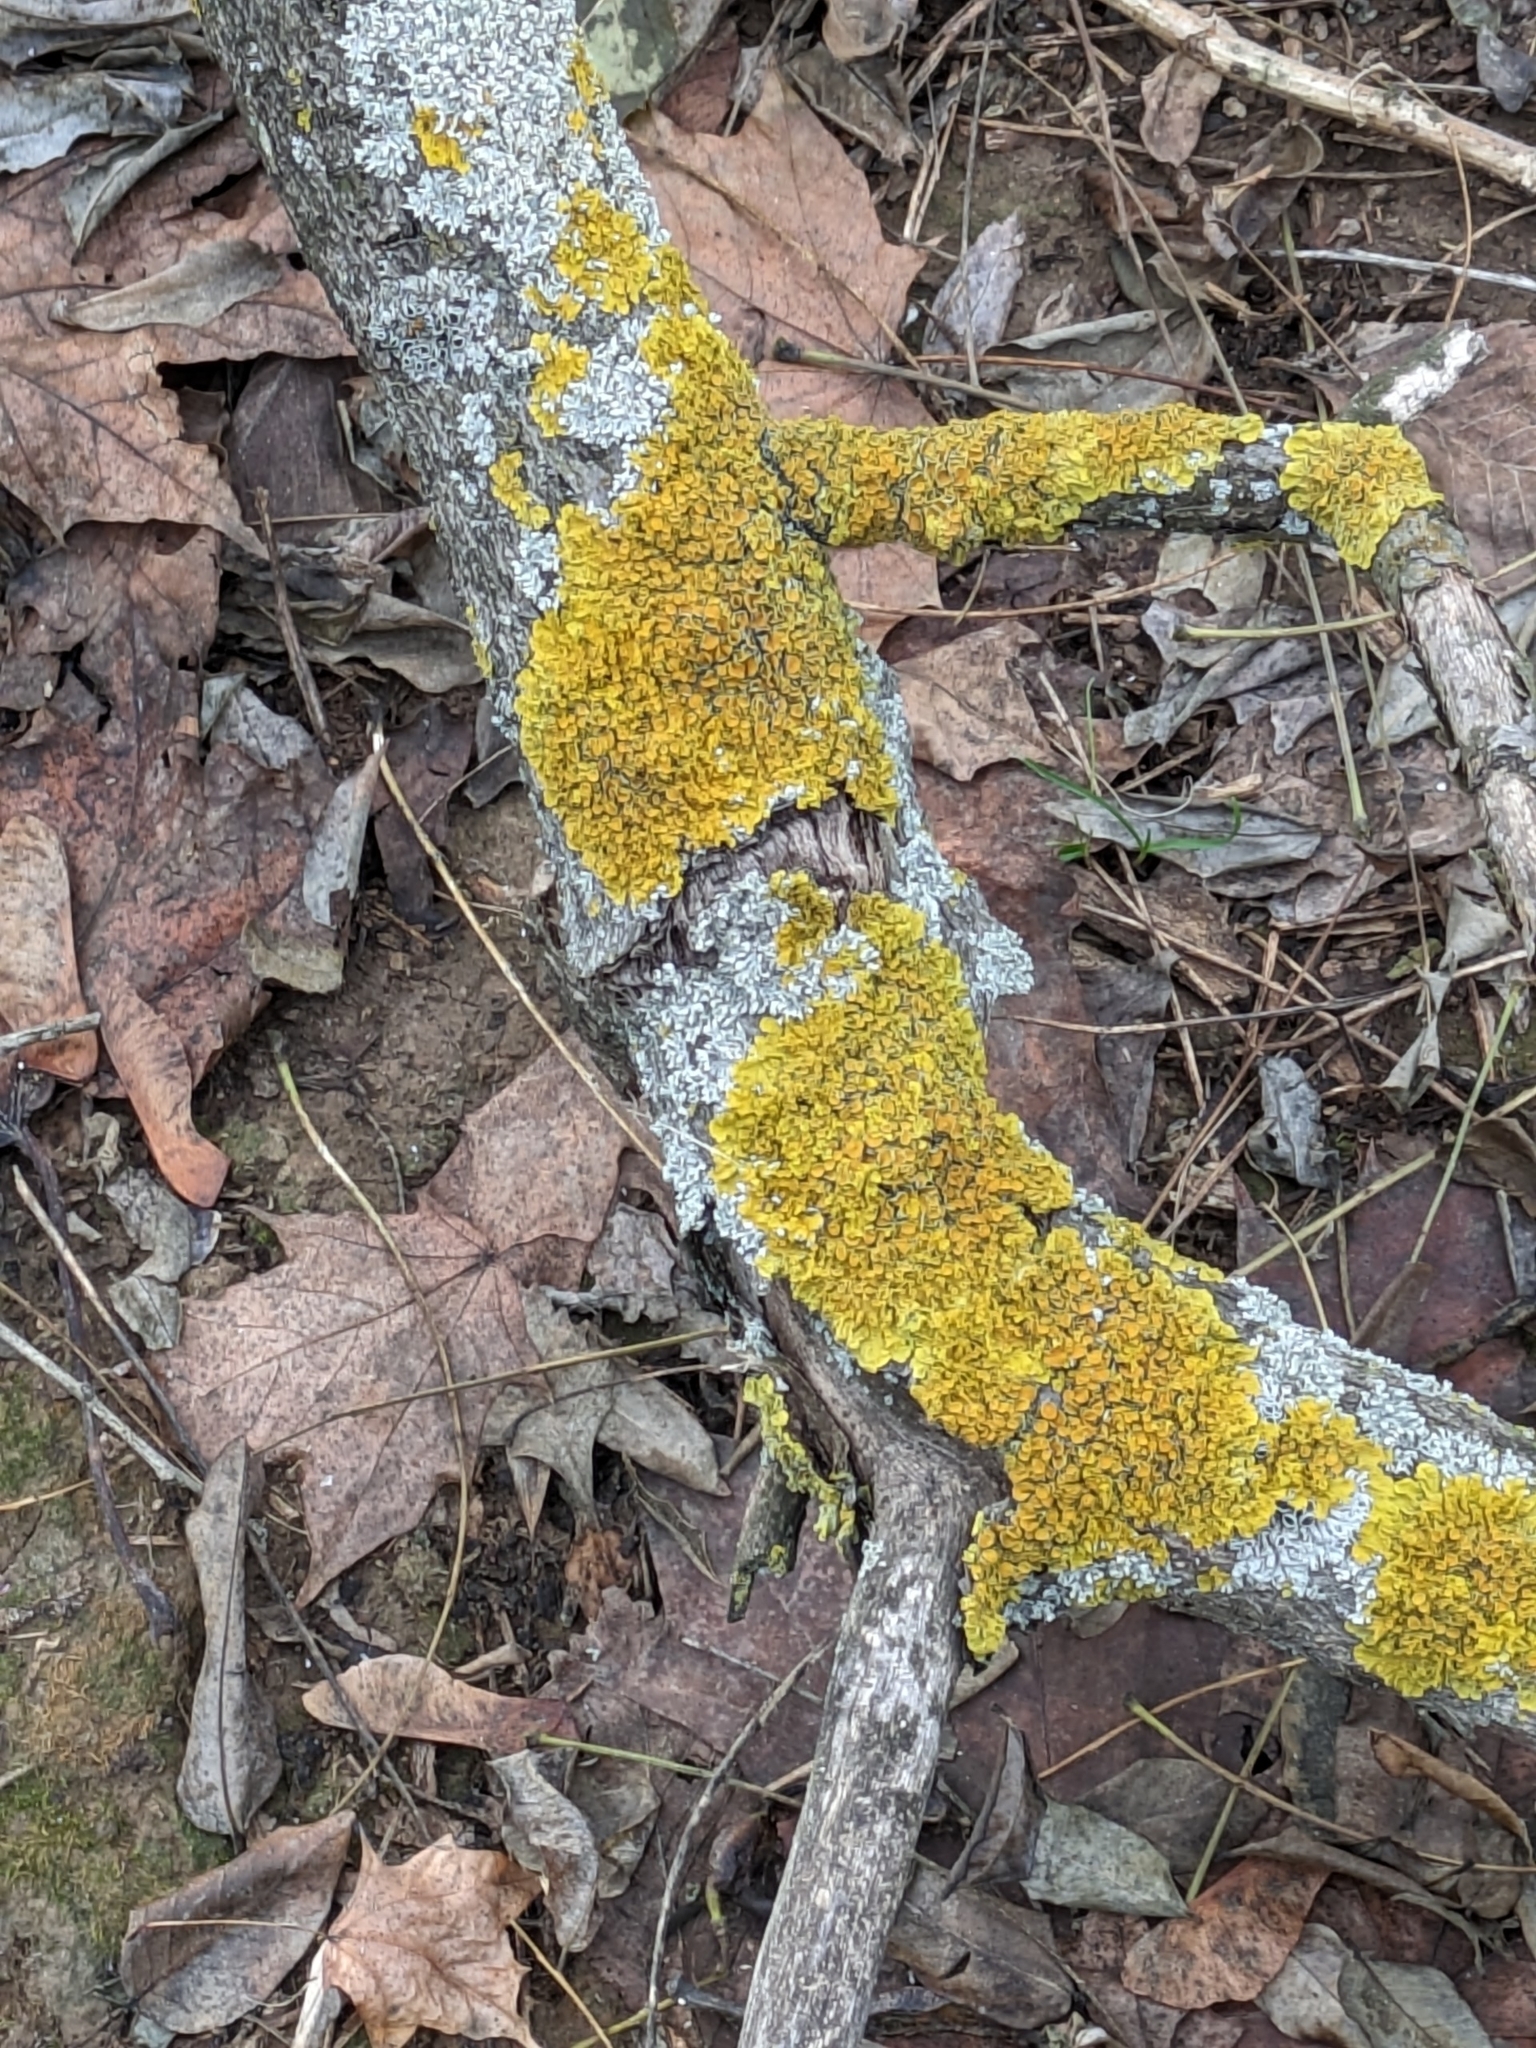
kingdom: Fungi
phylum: Ascomycota
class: Lecanoromycetes
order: Teloschistales
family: Teloschistaceae
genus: Xanthoria
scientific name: Xanthoria parietina
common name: Common orange lichen
